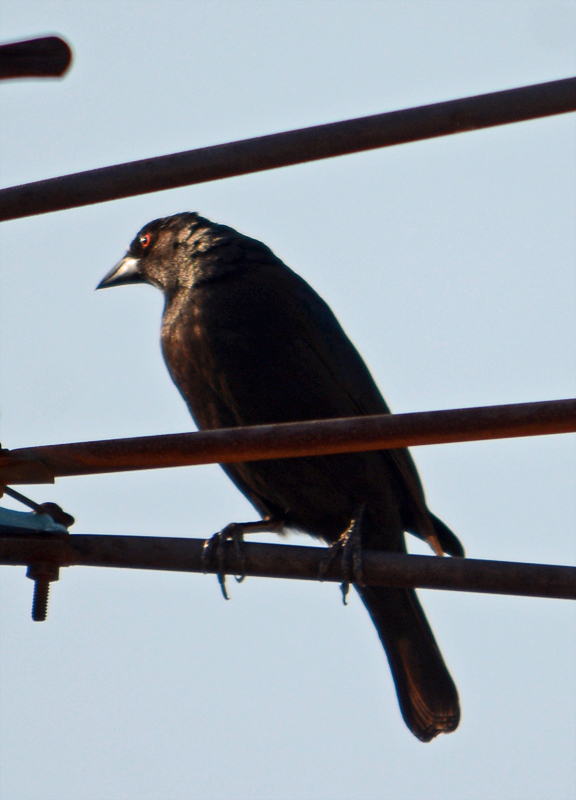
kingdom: Animalia
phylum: Chordata
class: Aves
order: Passeriformes
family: Icteridae
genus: Molothrus
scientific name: Molothrus aeneus
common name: Bronzed cowbird
